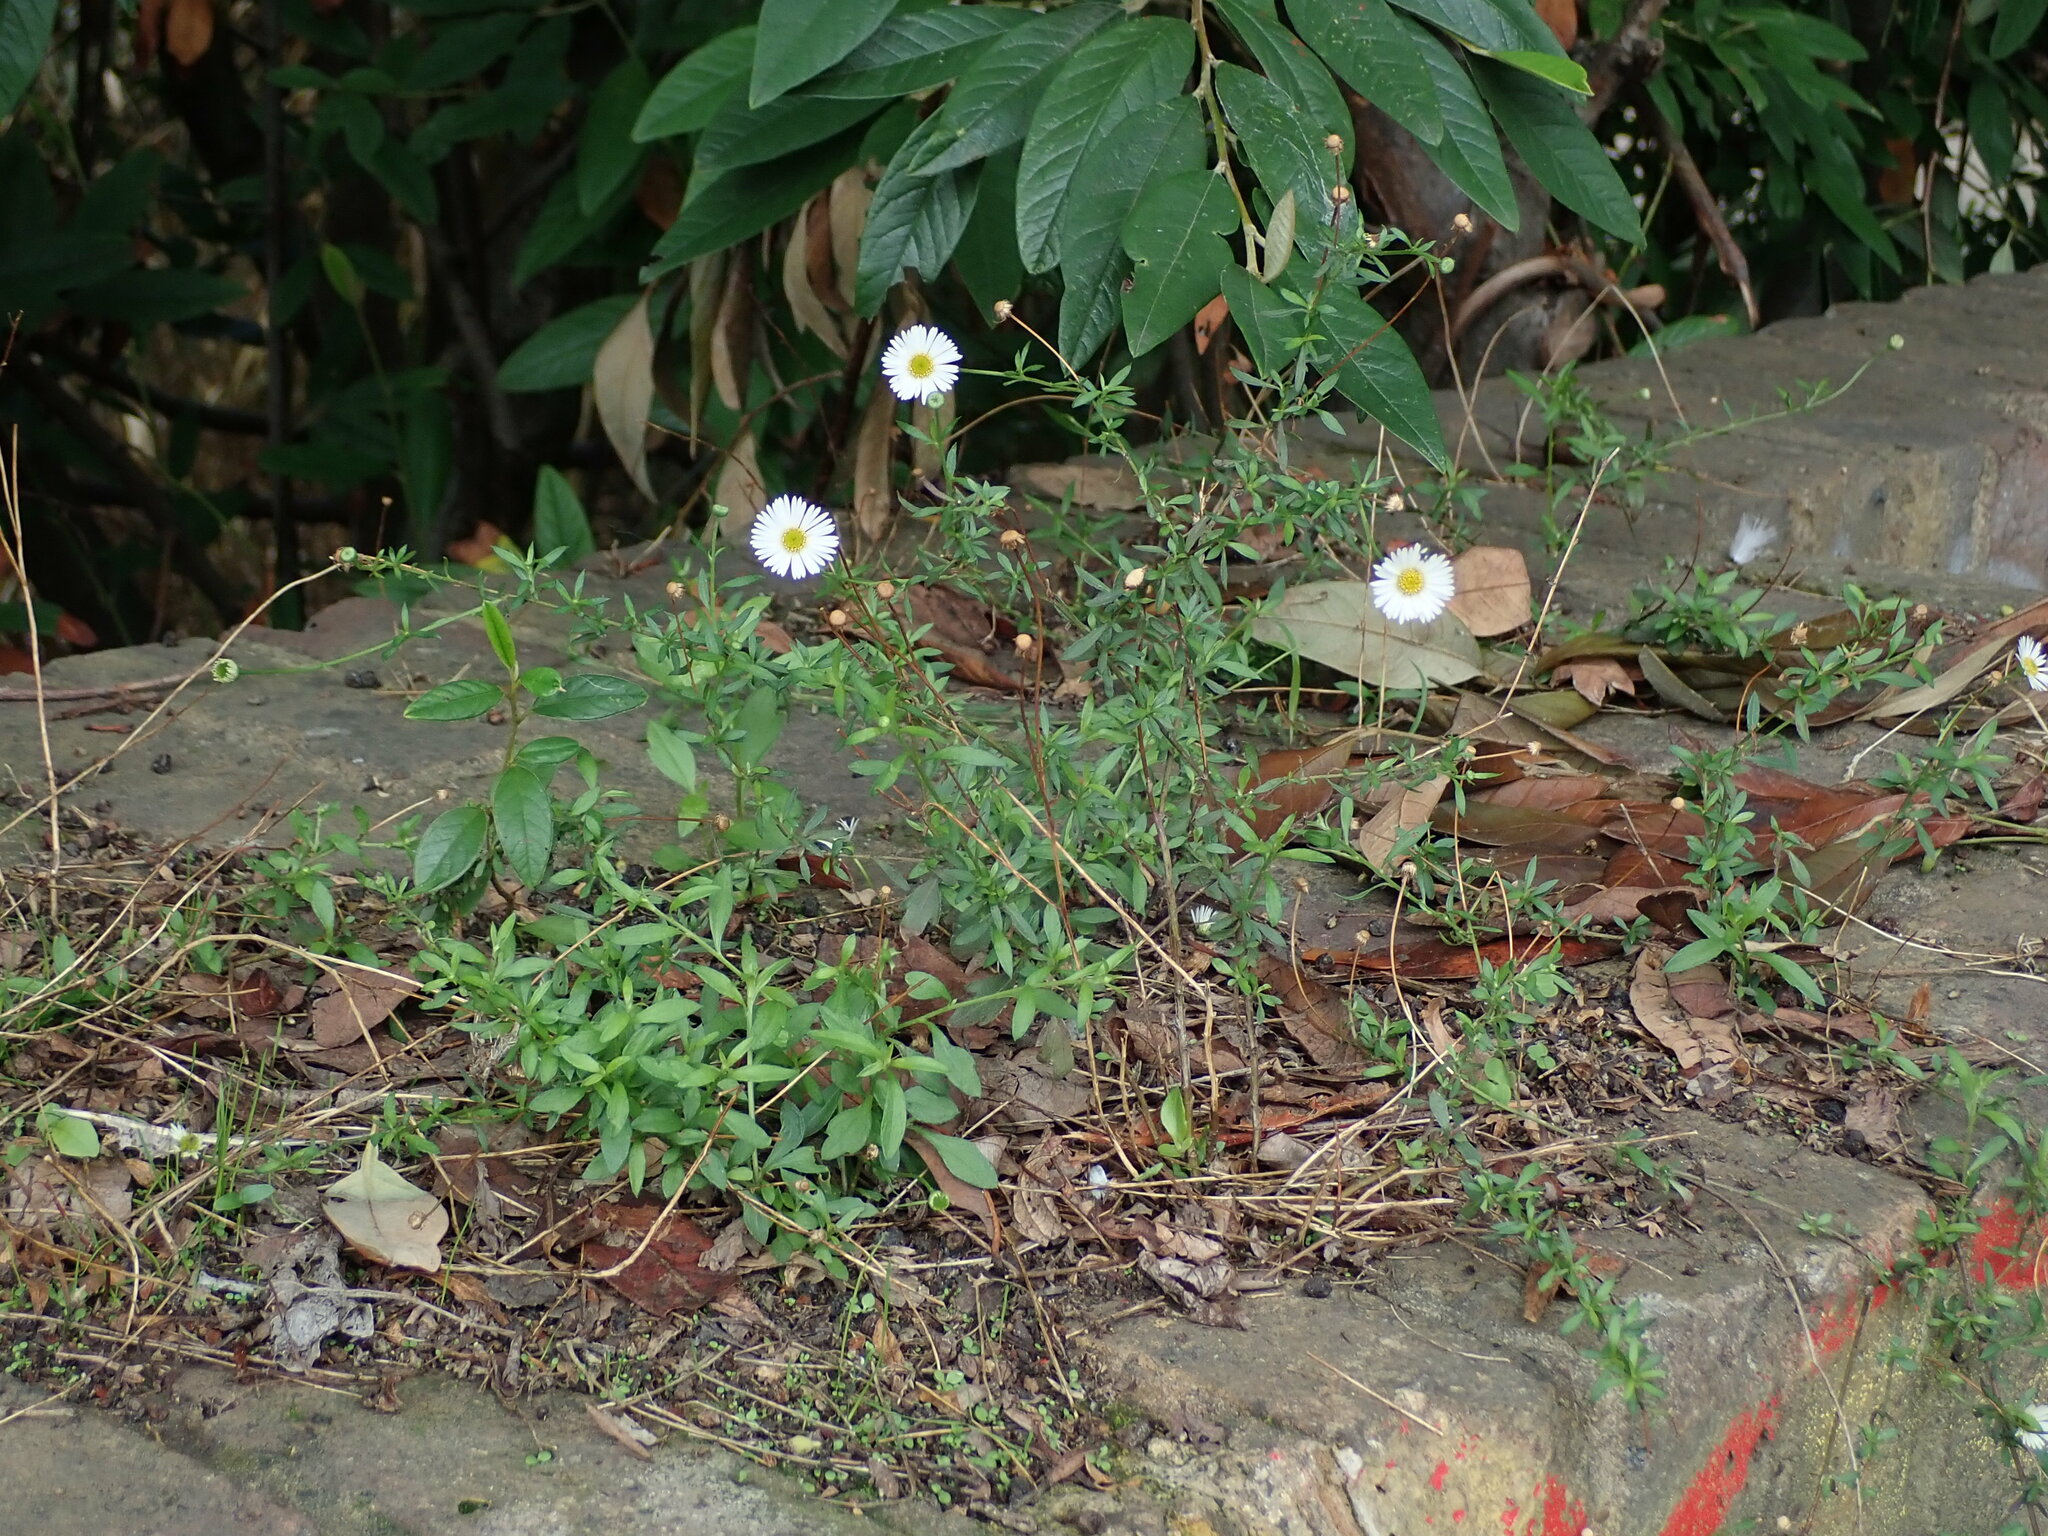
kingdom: Plantae
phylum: Tracheophyta
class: Magnoliopsida
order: Asterales
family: Asteraceae
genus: Erigeron
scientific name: Erigeron karvinskianus
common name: Mexican fleabane
